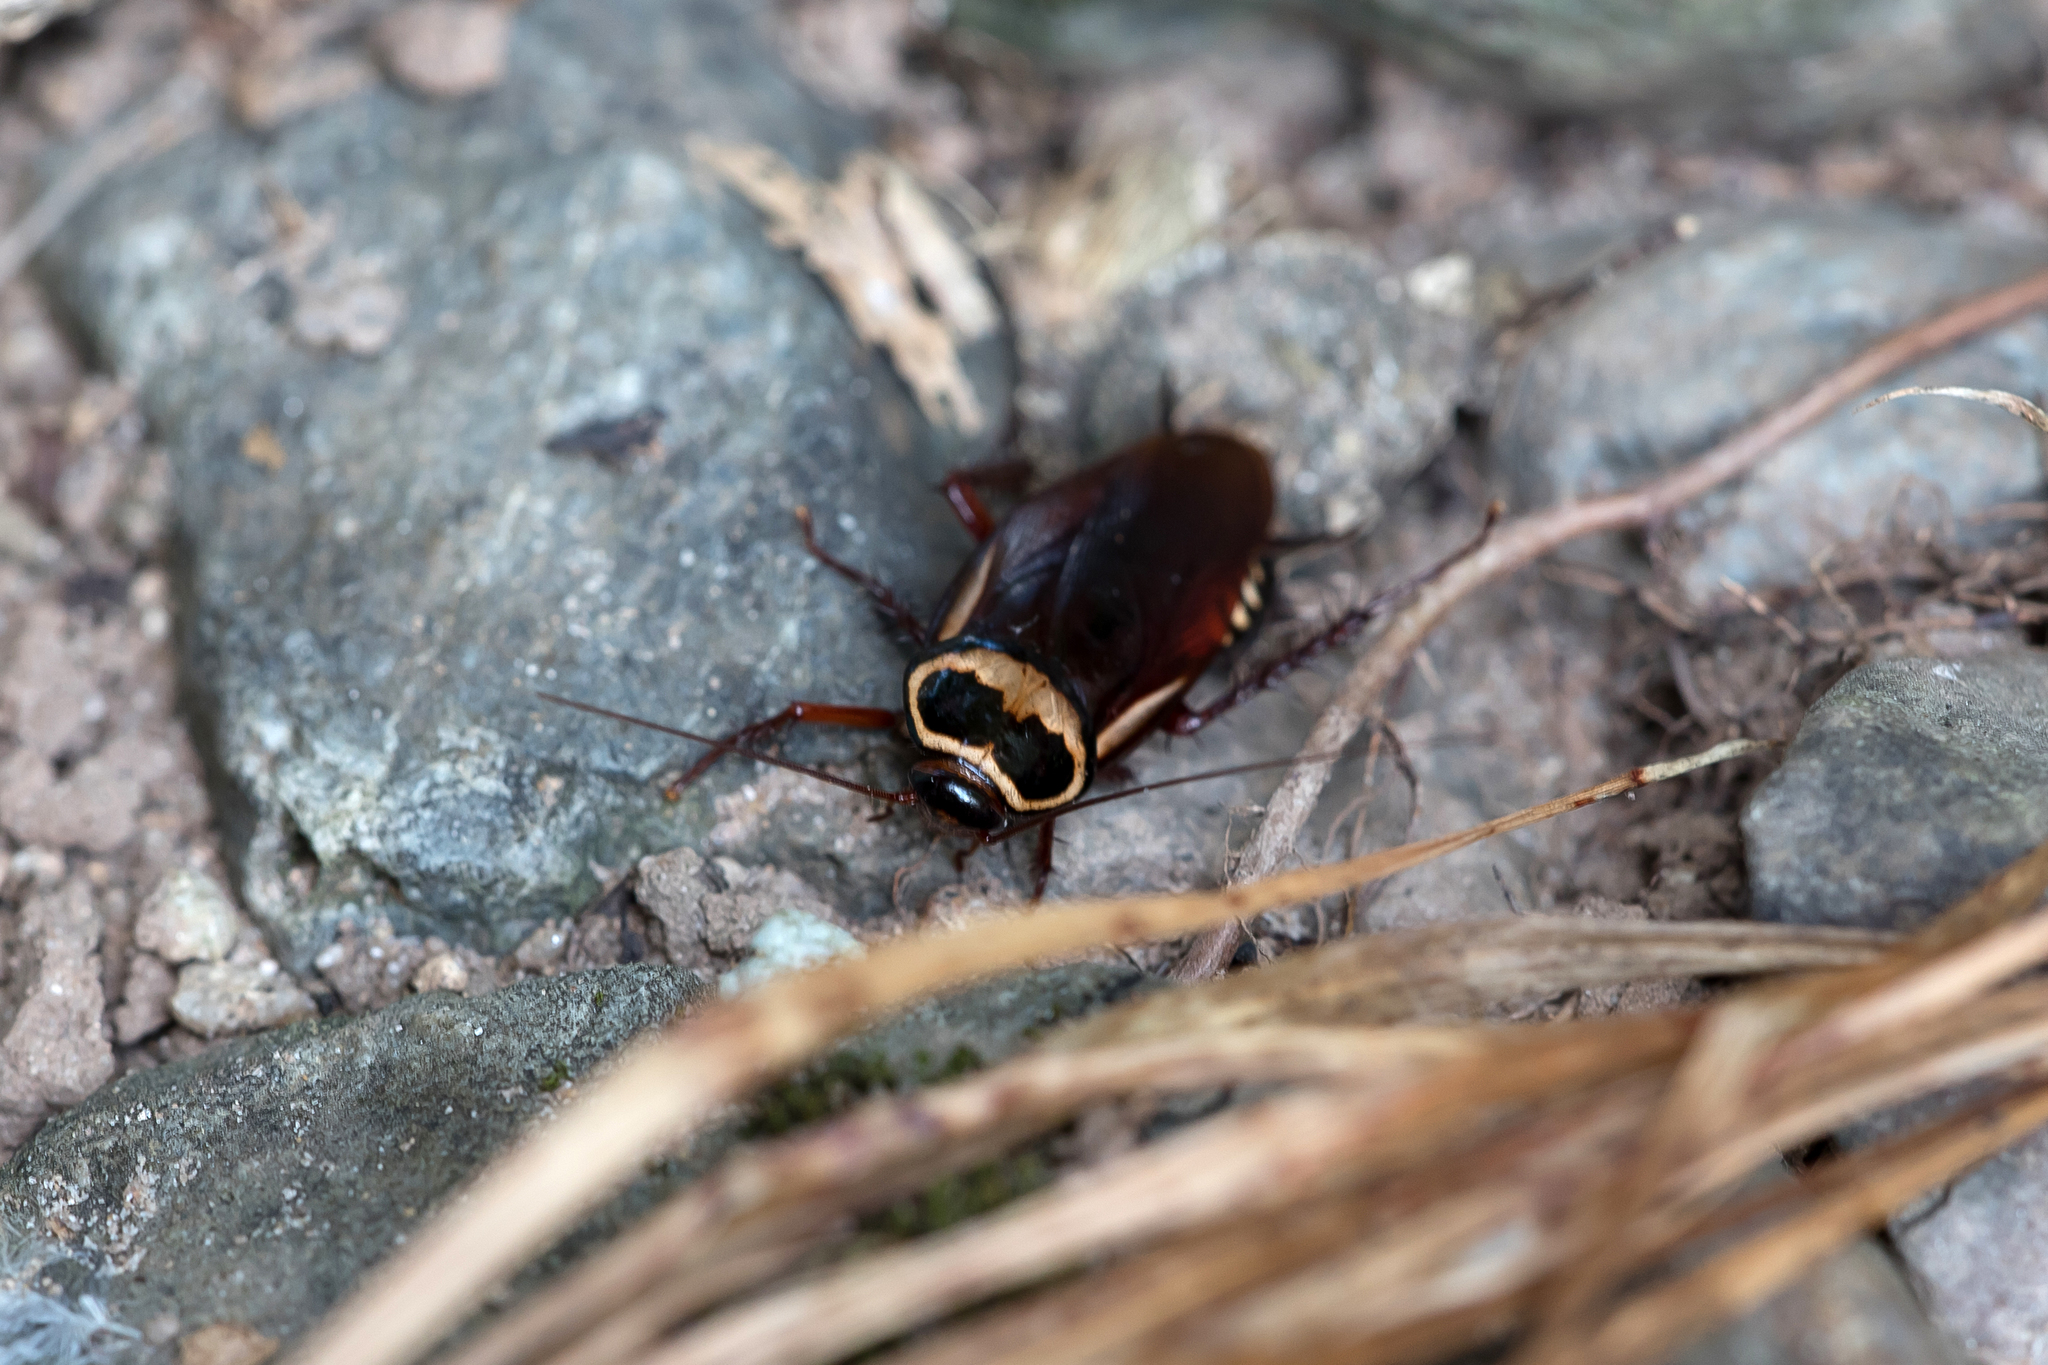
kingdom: Animalia
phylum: Arthropoda
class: Insecta
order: Blattodea
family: Blattidae
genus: Periplaneta
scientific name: Periplaneta australasiae
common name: Australian cockroach
